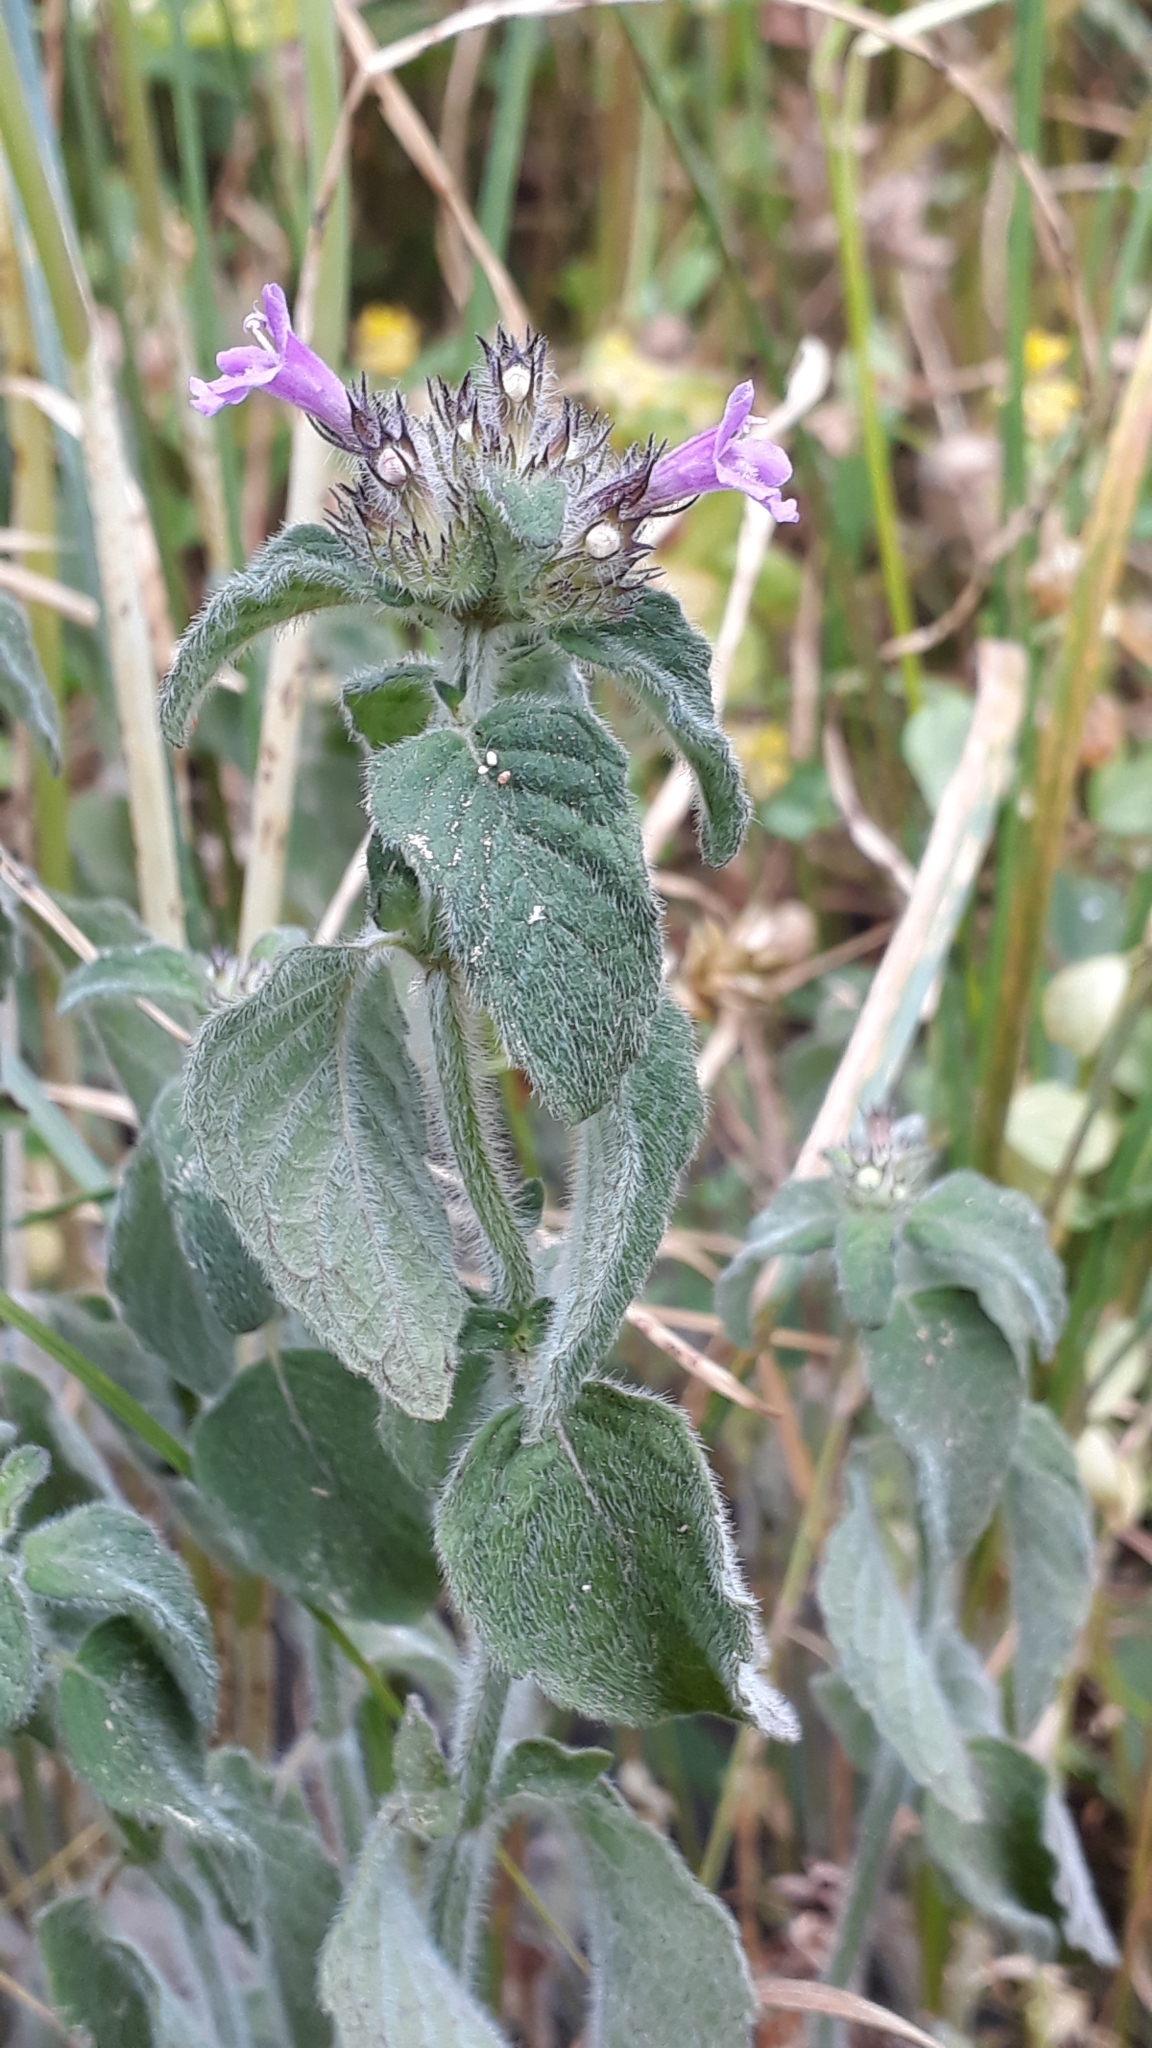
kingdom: Plantae
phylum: Tracheophyta
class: Magnoliopsida
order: Lamiales
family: Lamiaceae
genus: Clinopodium
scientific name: Clinopodium vulgare
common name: Wild basil
